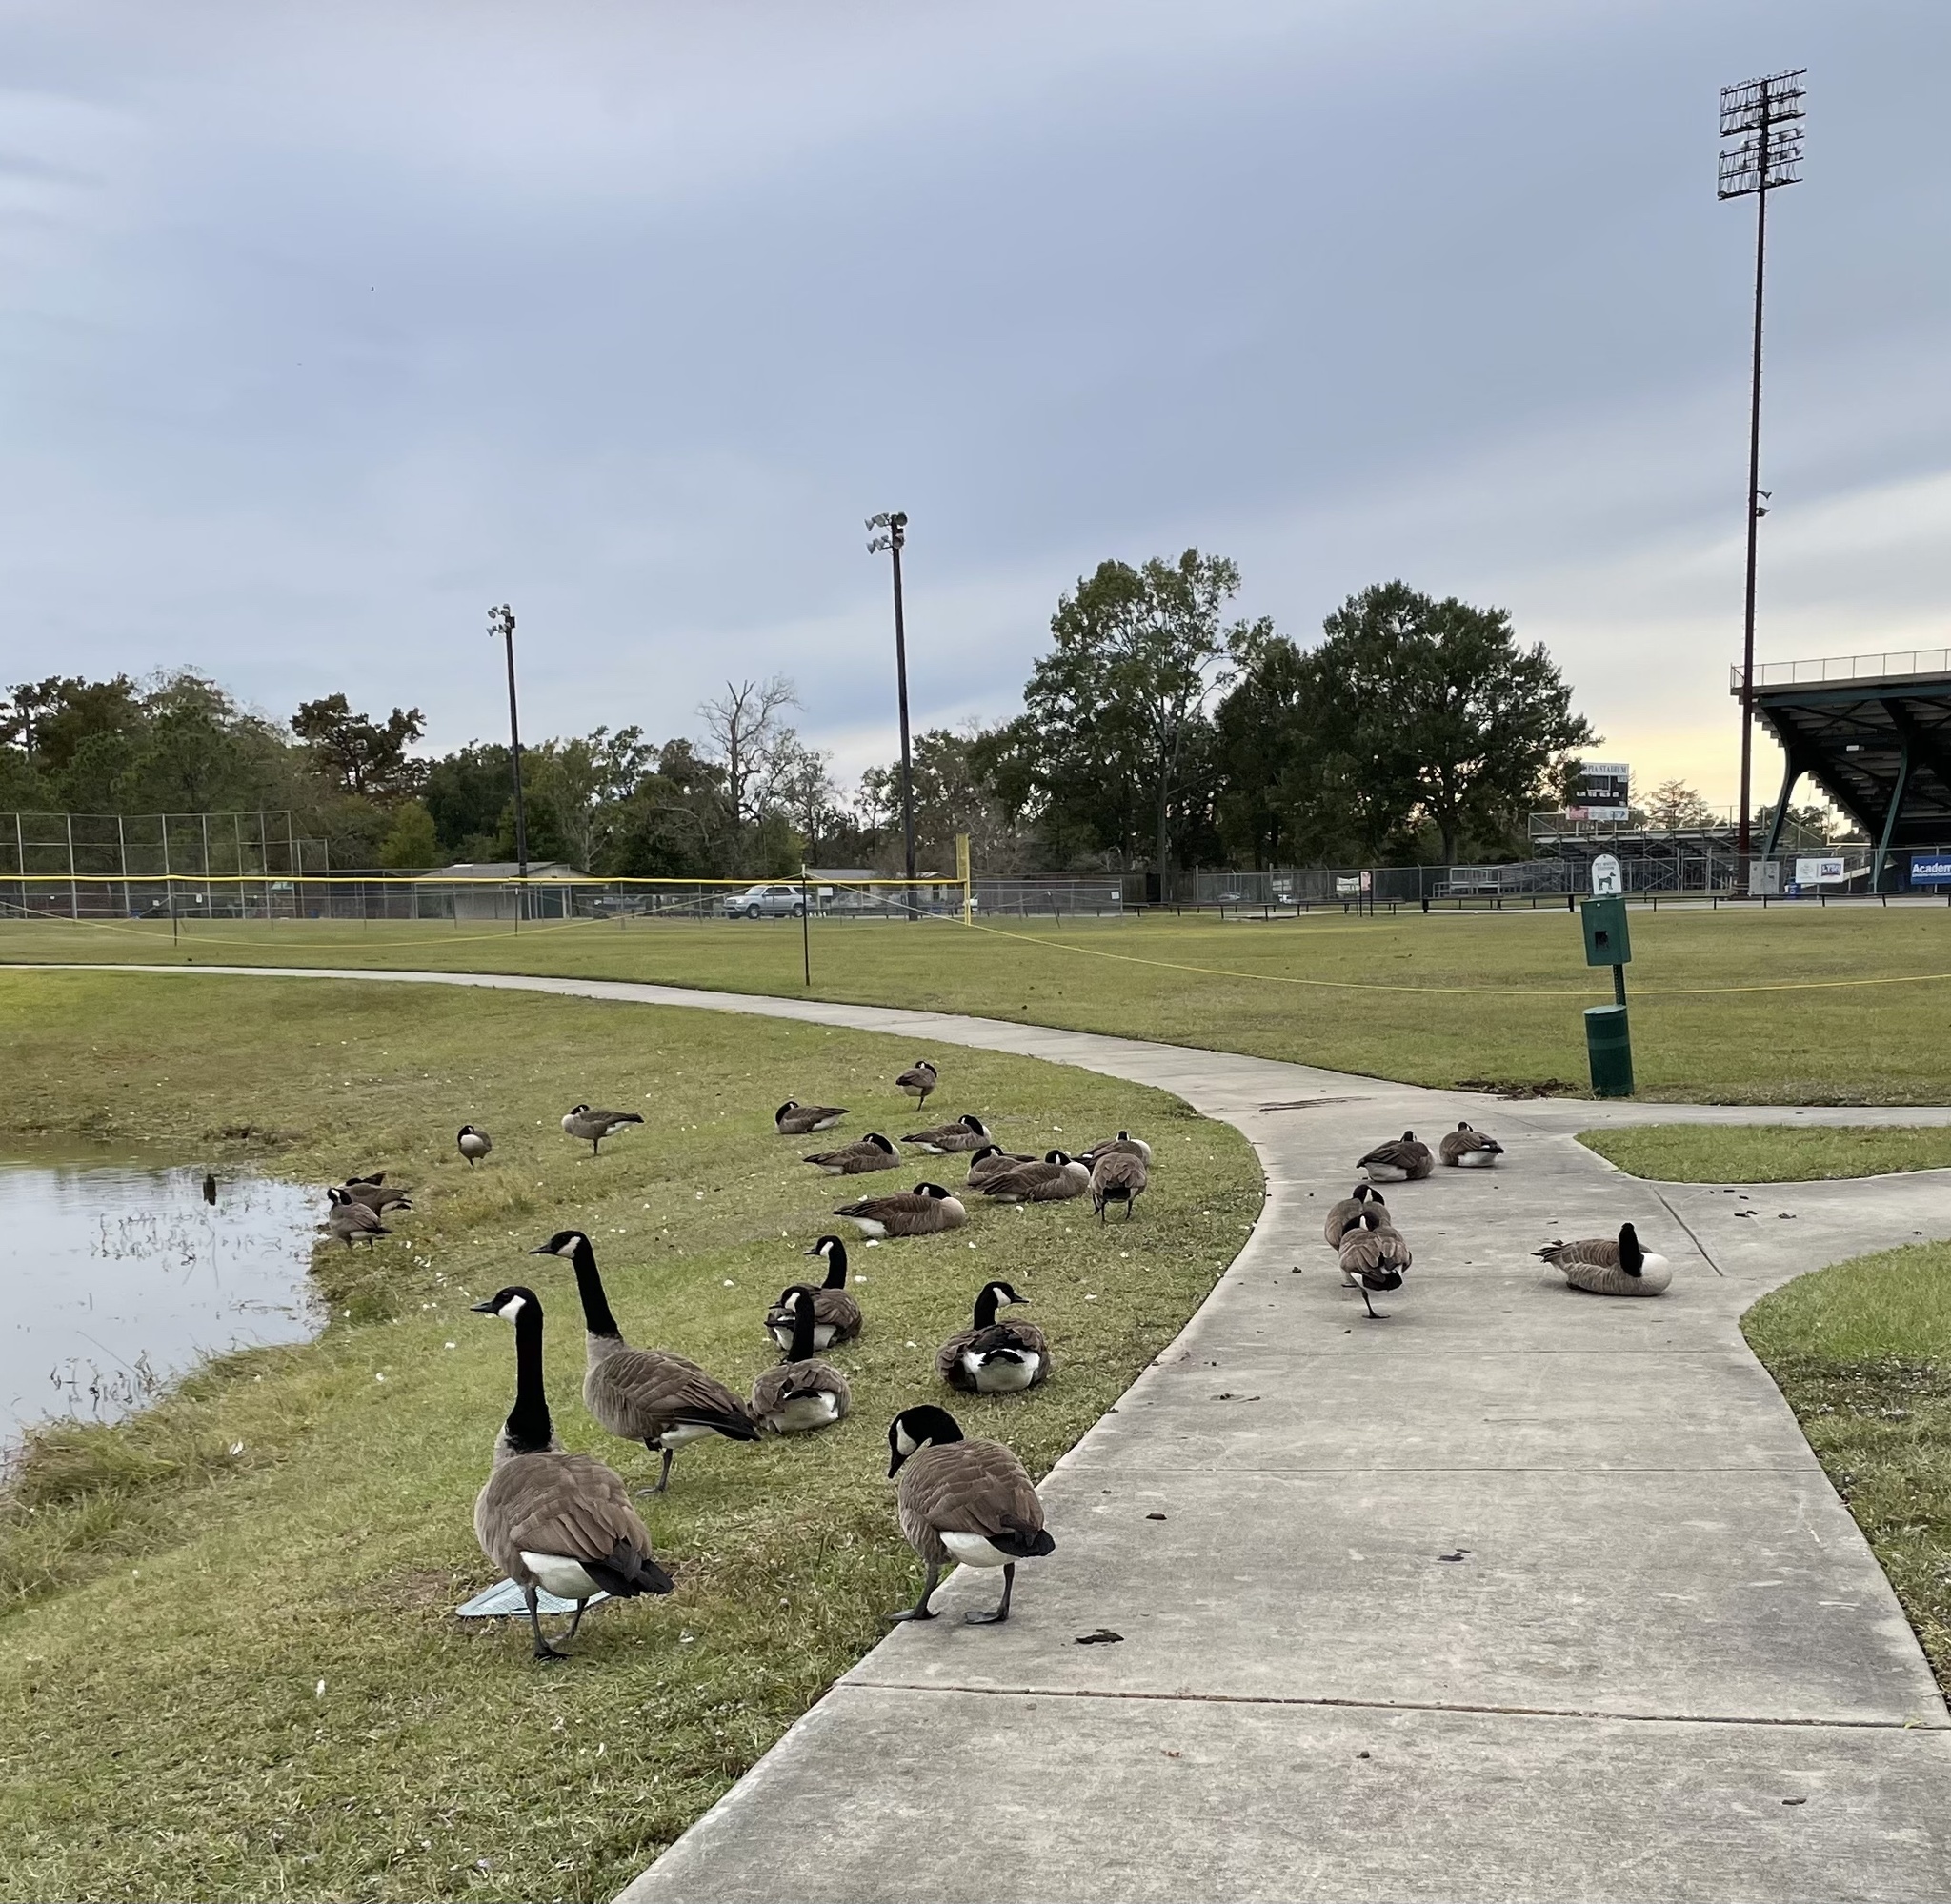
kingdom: Animalia
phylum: Chordata
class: Aves
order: Anseriformes
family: Anatidae
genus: Branta
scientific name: Branta canadensis
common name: Canada goose
